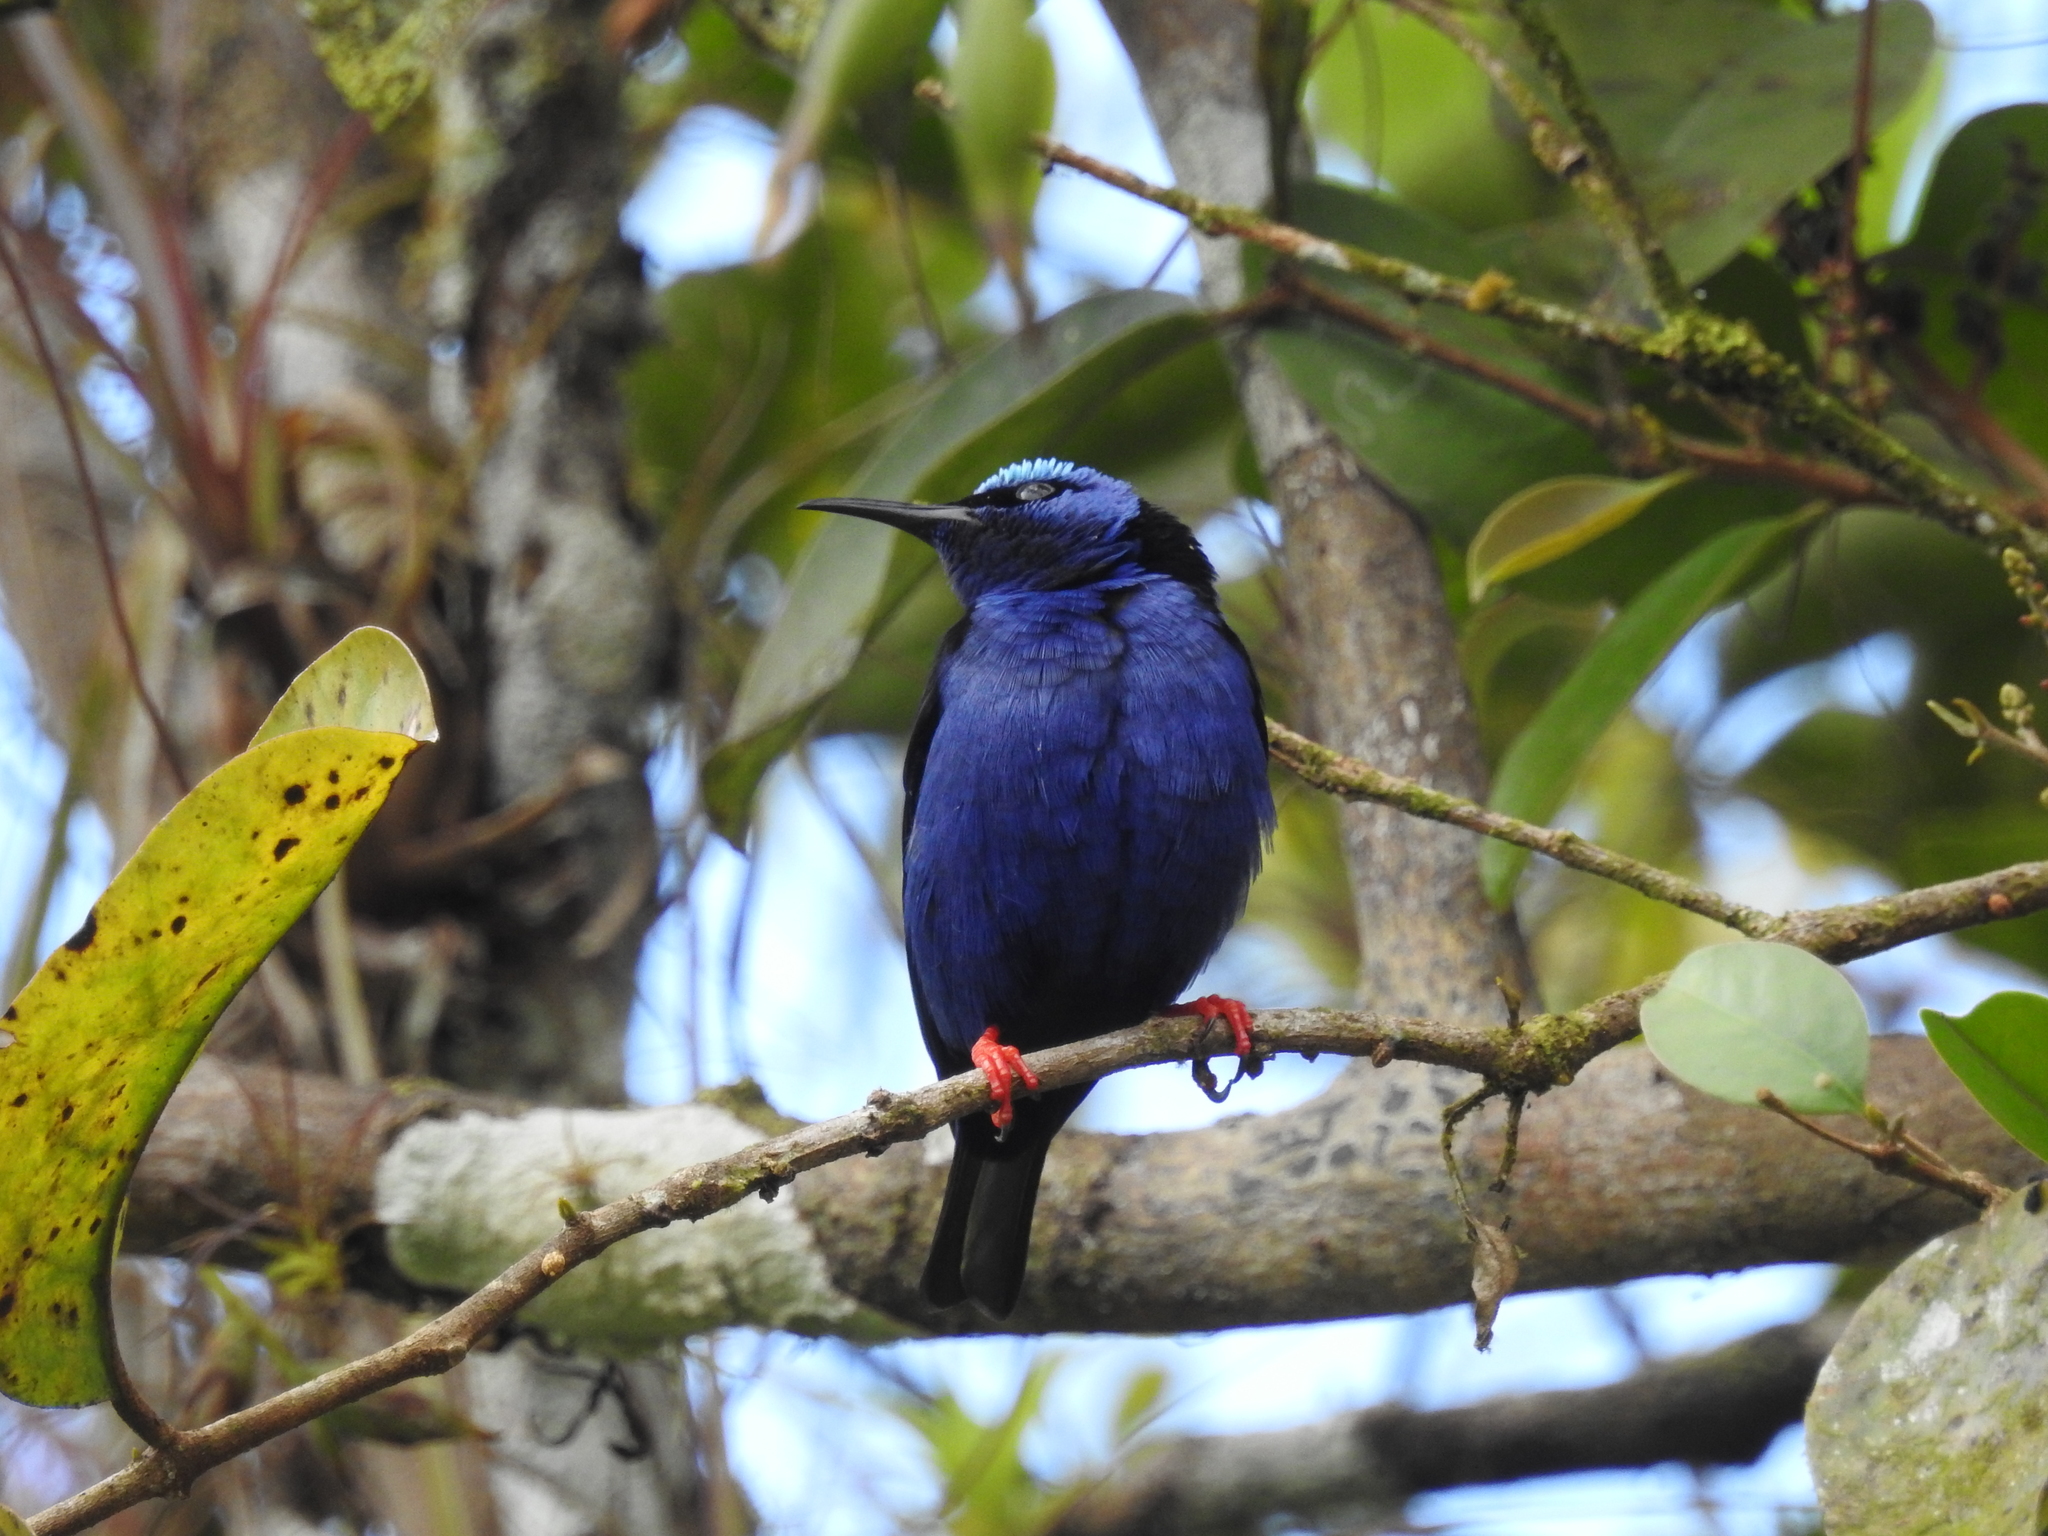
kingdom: Animalia
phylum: Chordata
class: Aves
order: Passeriformes
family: Thraupidae
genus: Cyanerpes
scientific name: Cyanerpes cyaneus
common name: Red-legged honeycreeper
